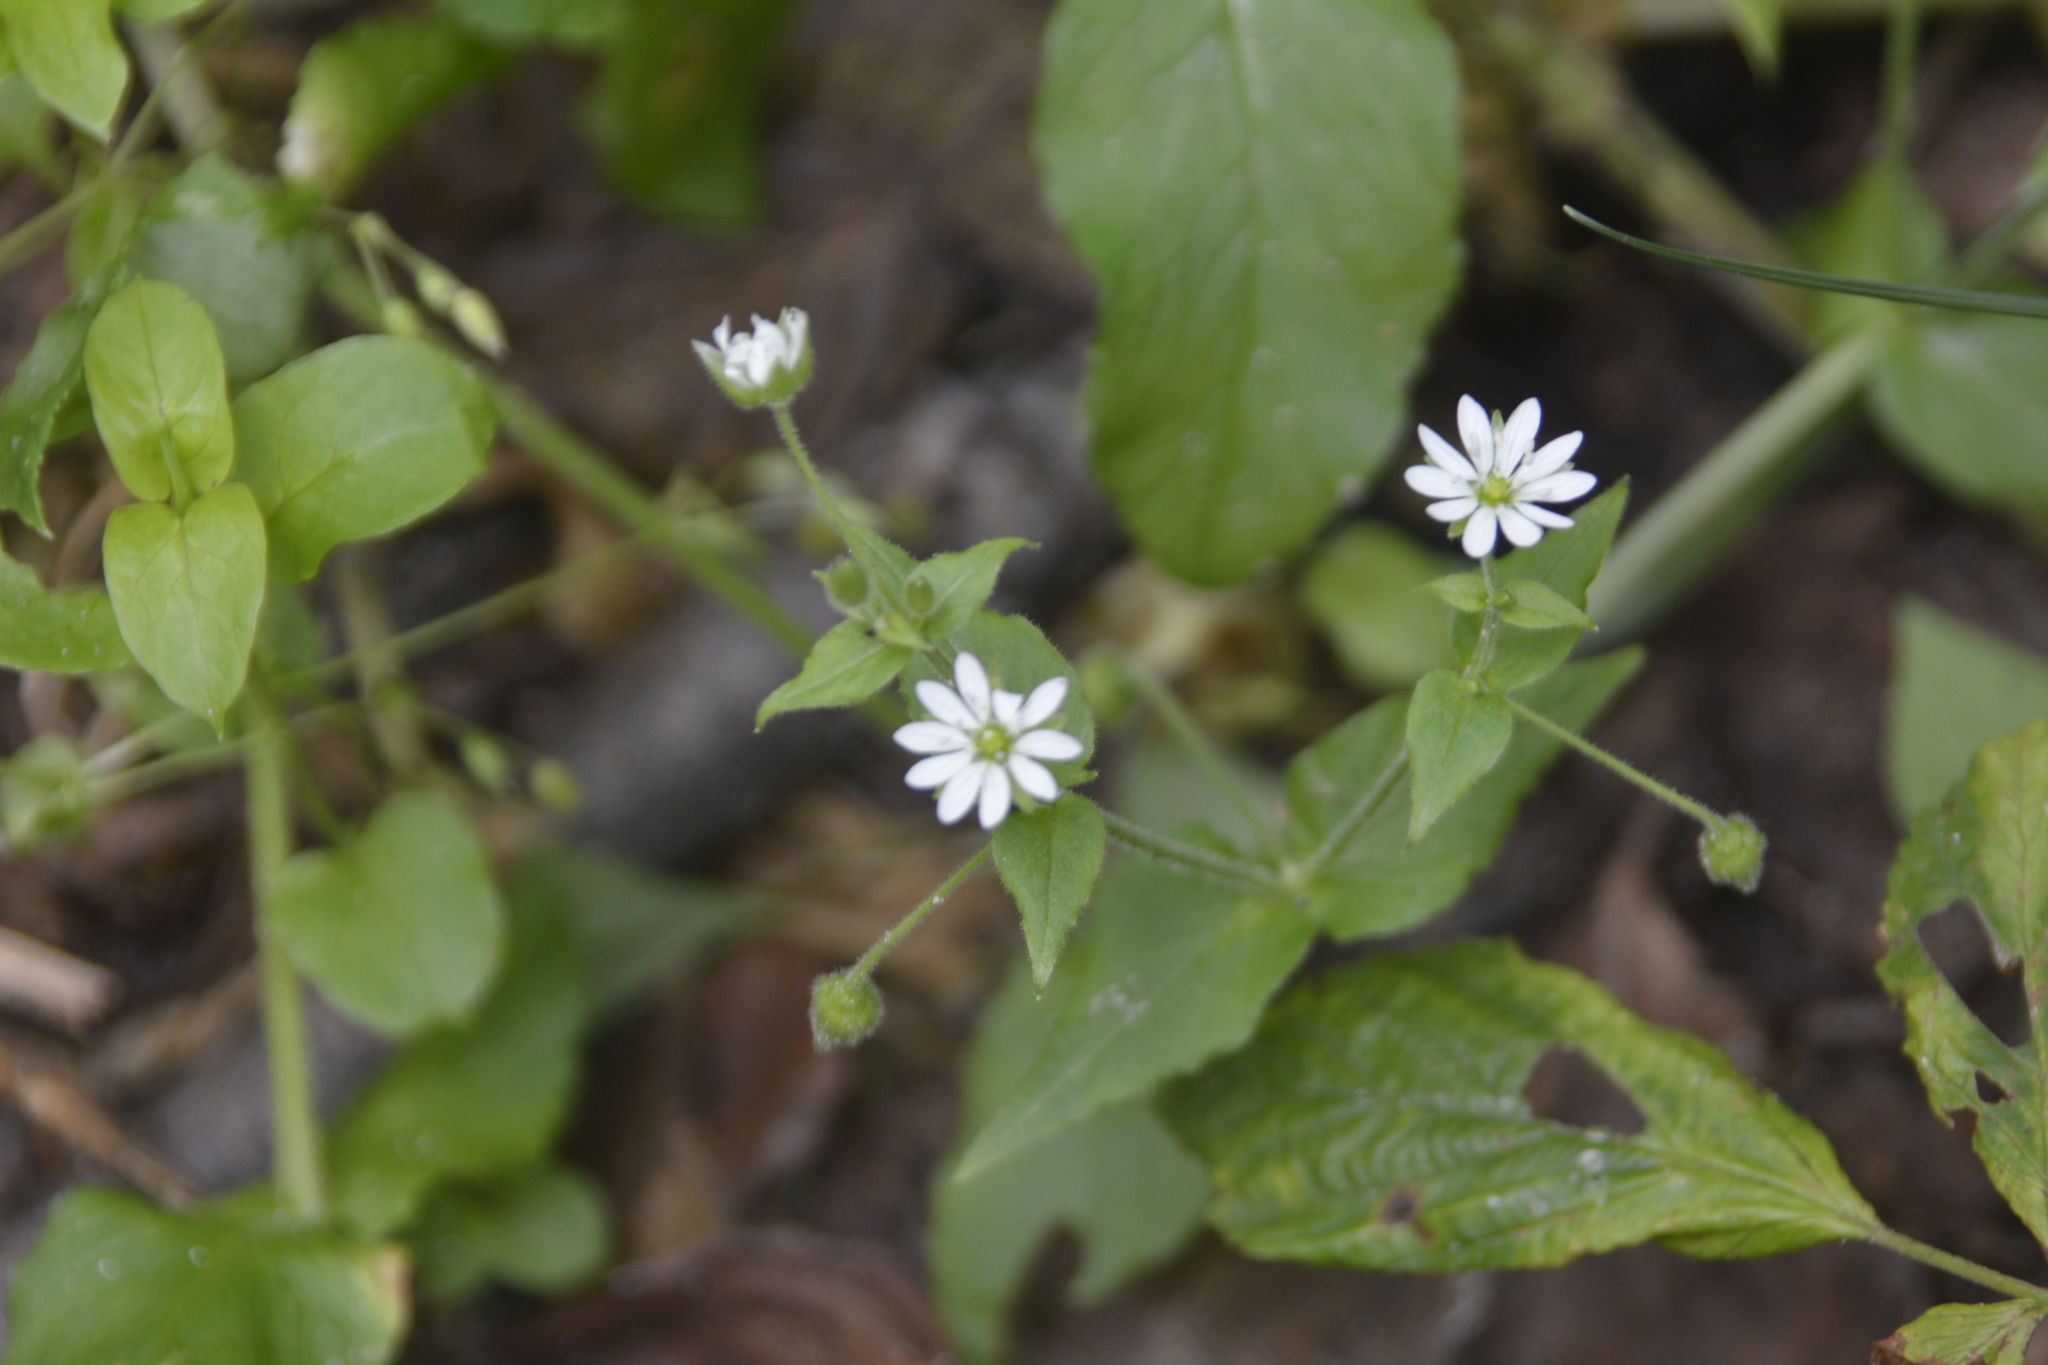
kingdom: Plantae
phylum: Tracheophyta
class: Magnoliopsida
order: Caryophyllales
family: Caryophyllaceae
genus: Stellaria
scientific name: Stellaria aquatica
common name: Water chickweed
